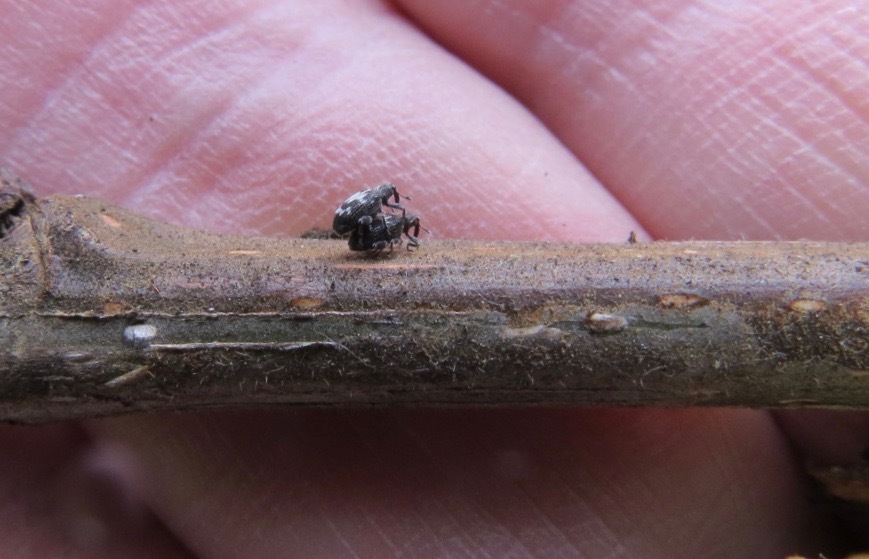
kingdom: Animalia
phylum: Arthropoda
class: Insecta
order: Coleoptera
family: Curculionidae
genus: Tachyerges
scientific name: Tachyerges salicis
